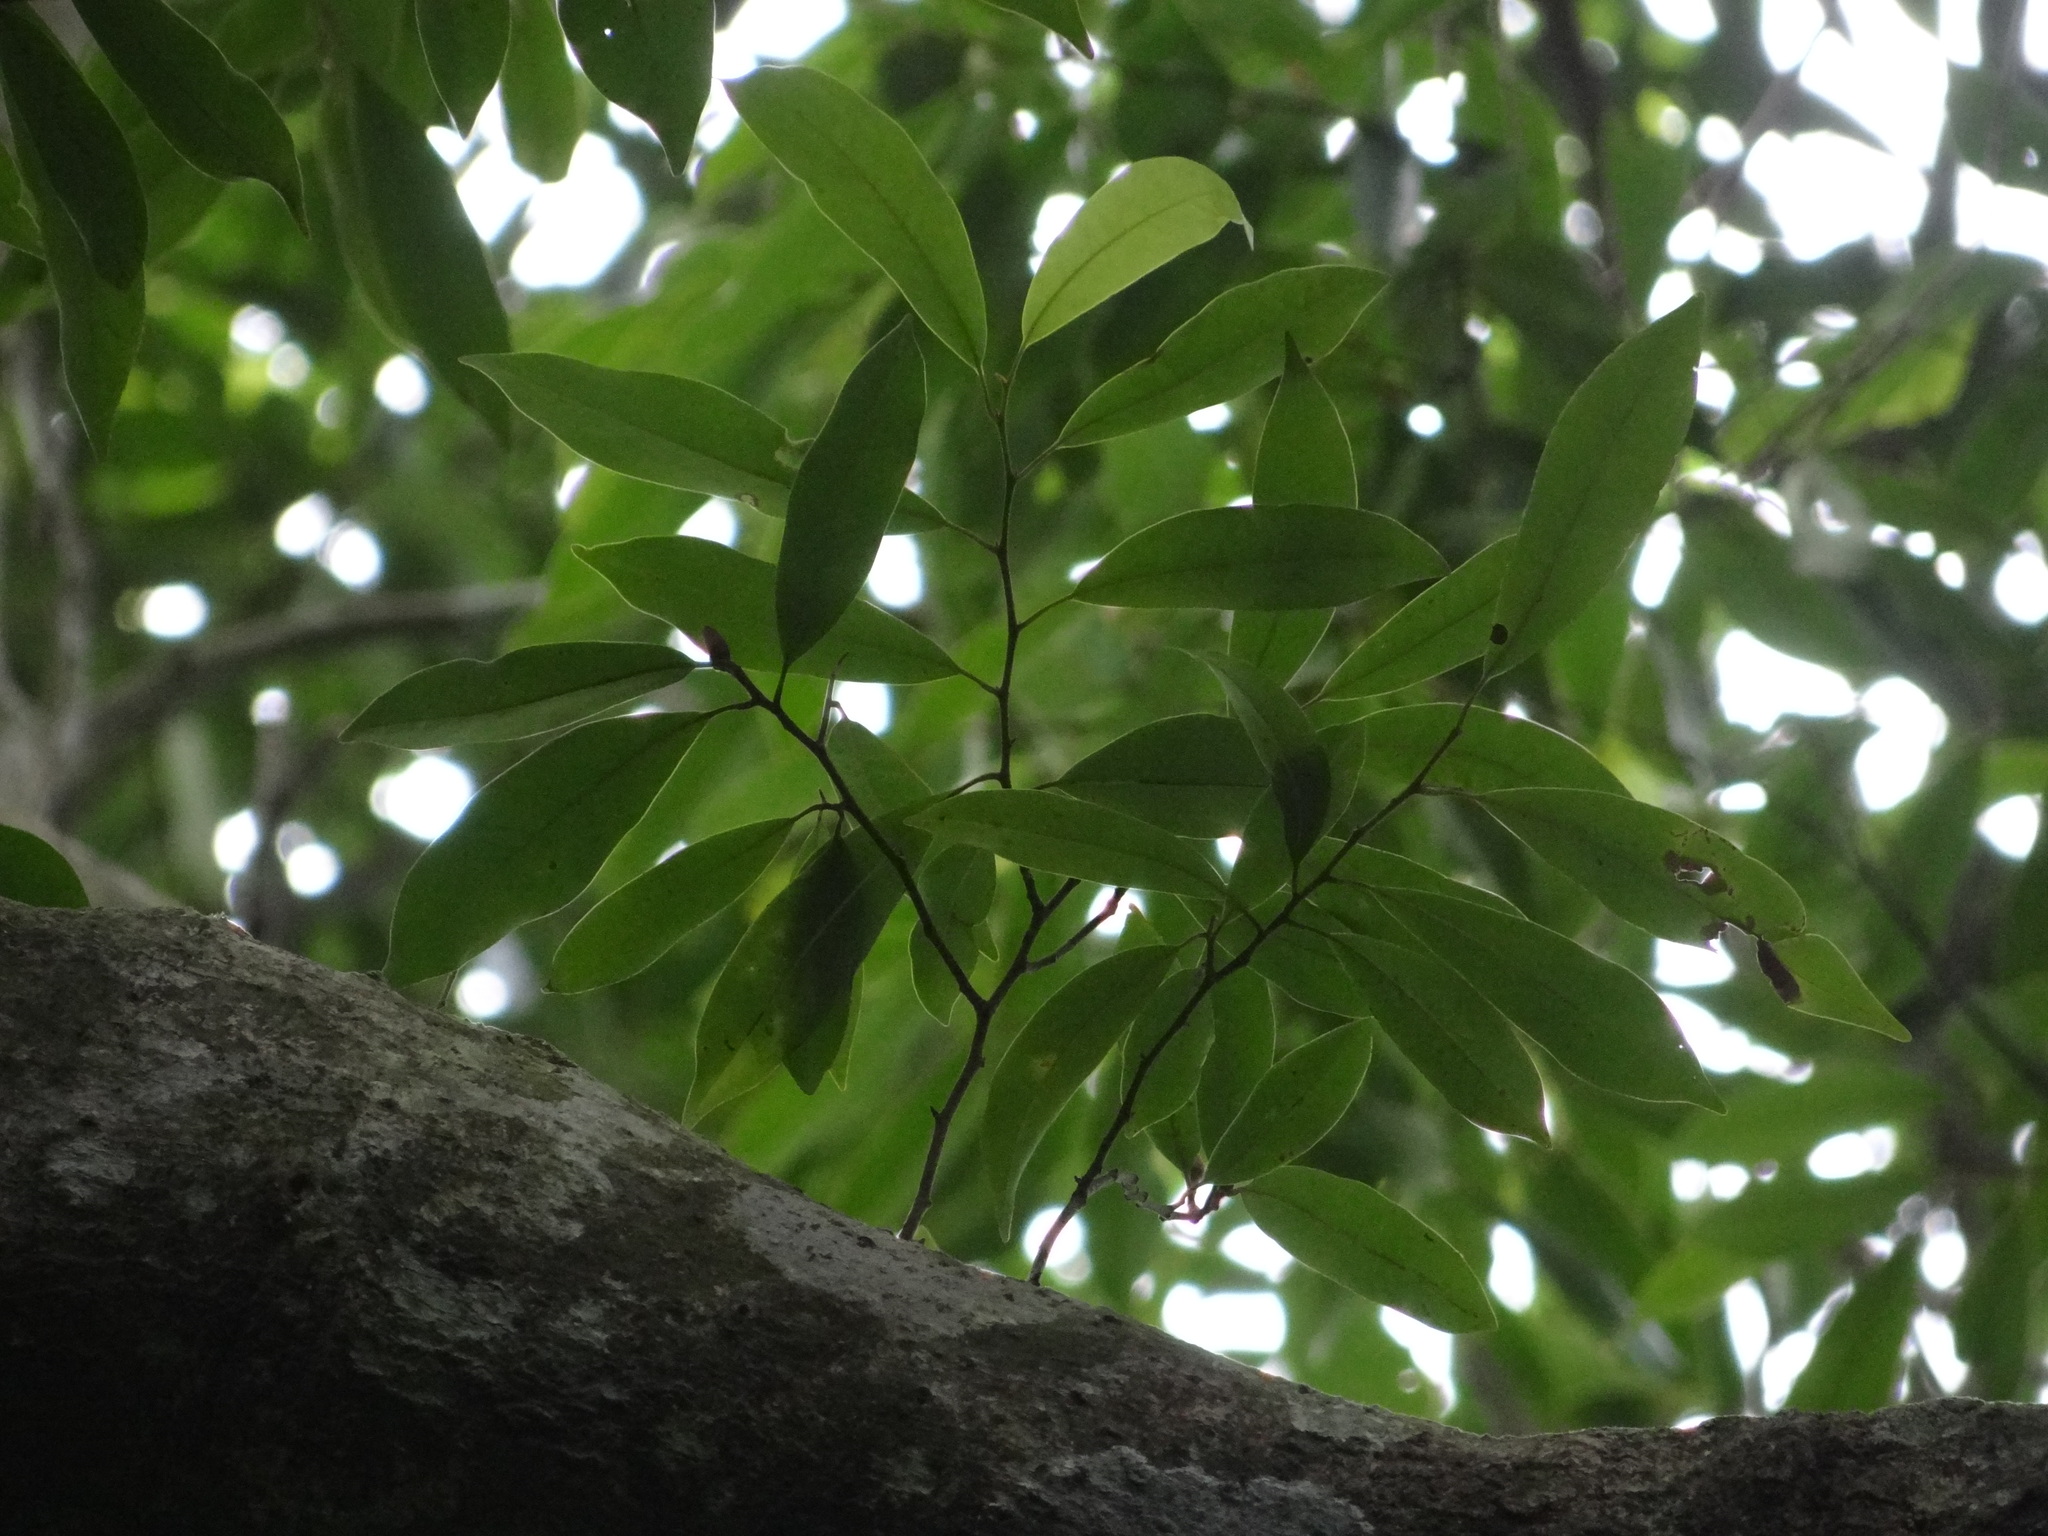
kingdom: Plantae
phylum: Tracheophyta
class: Magnoliopsida
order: Magnoliales
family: Magnoliaceae
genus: Magnolia
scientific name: Magnolia compressa
